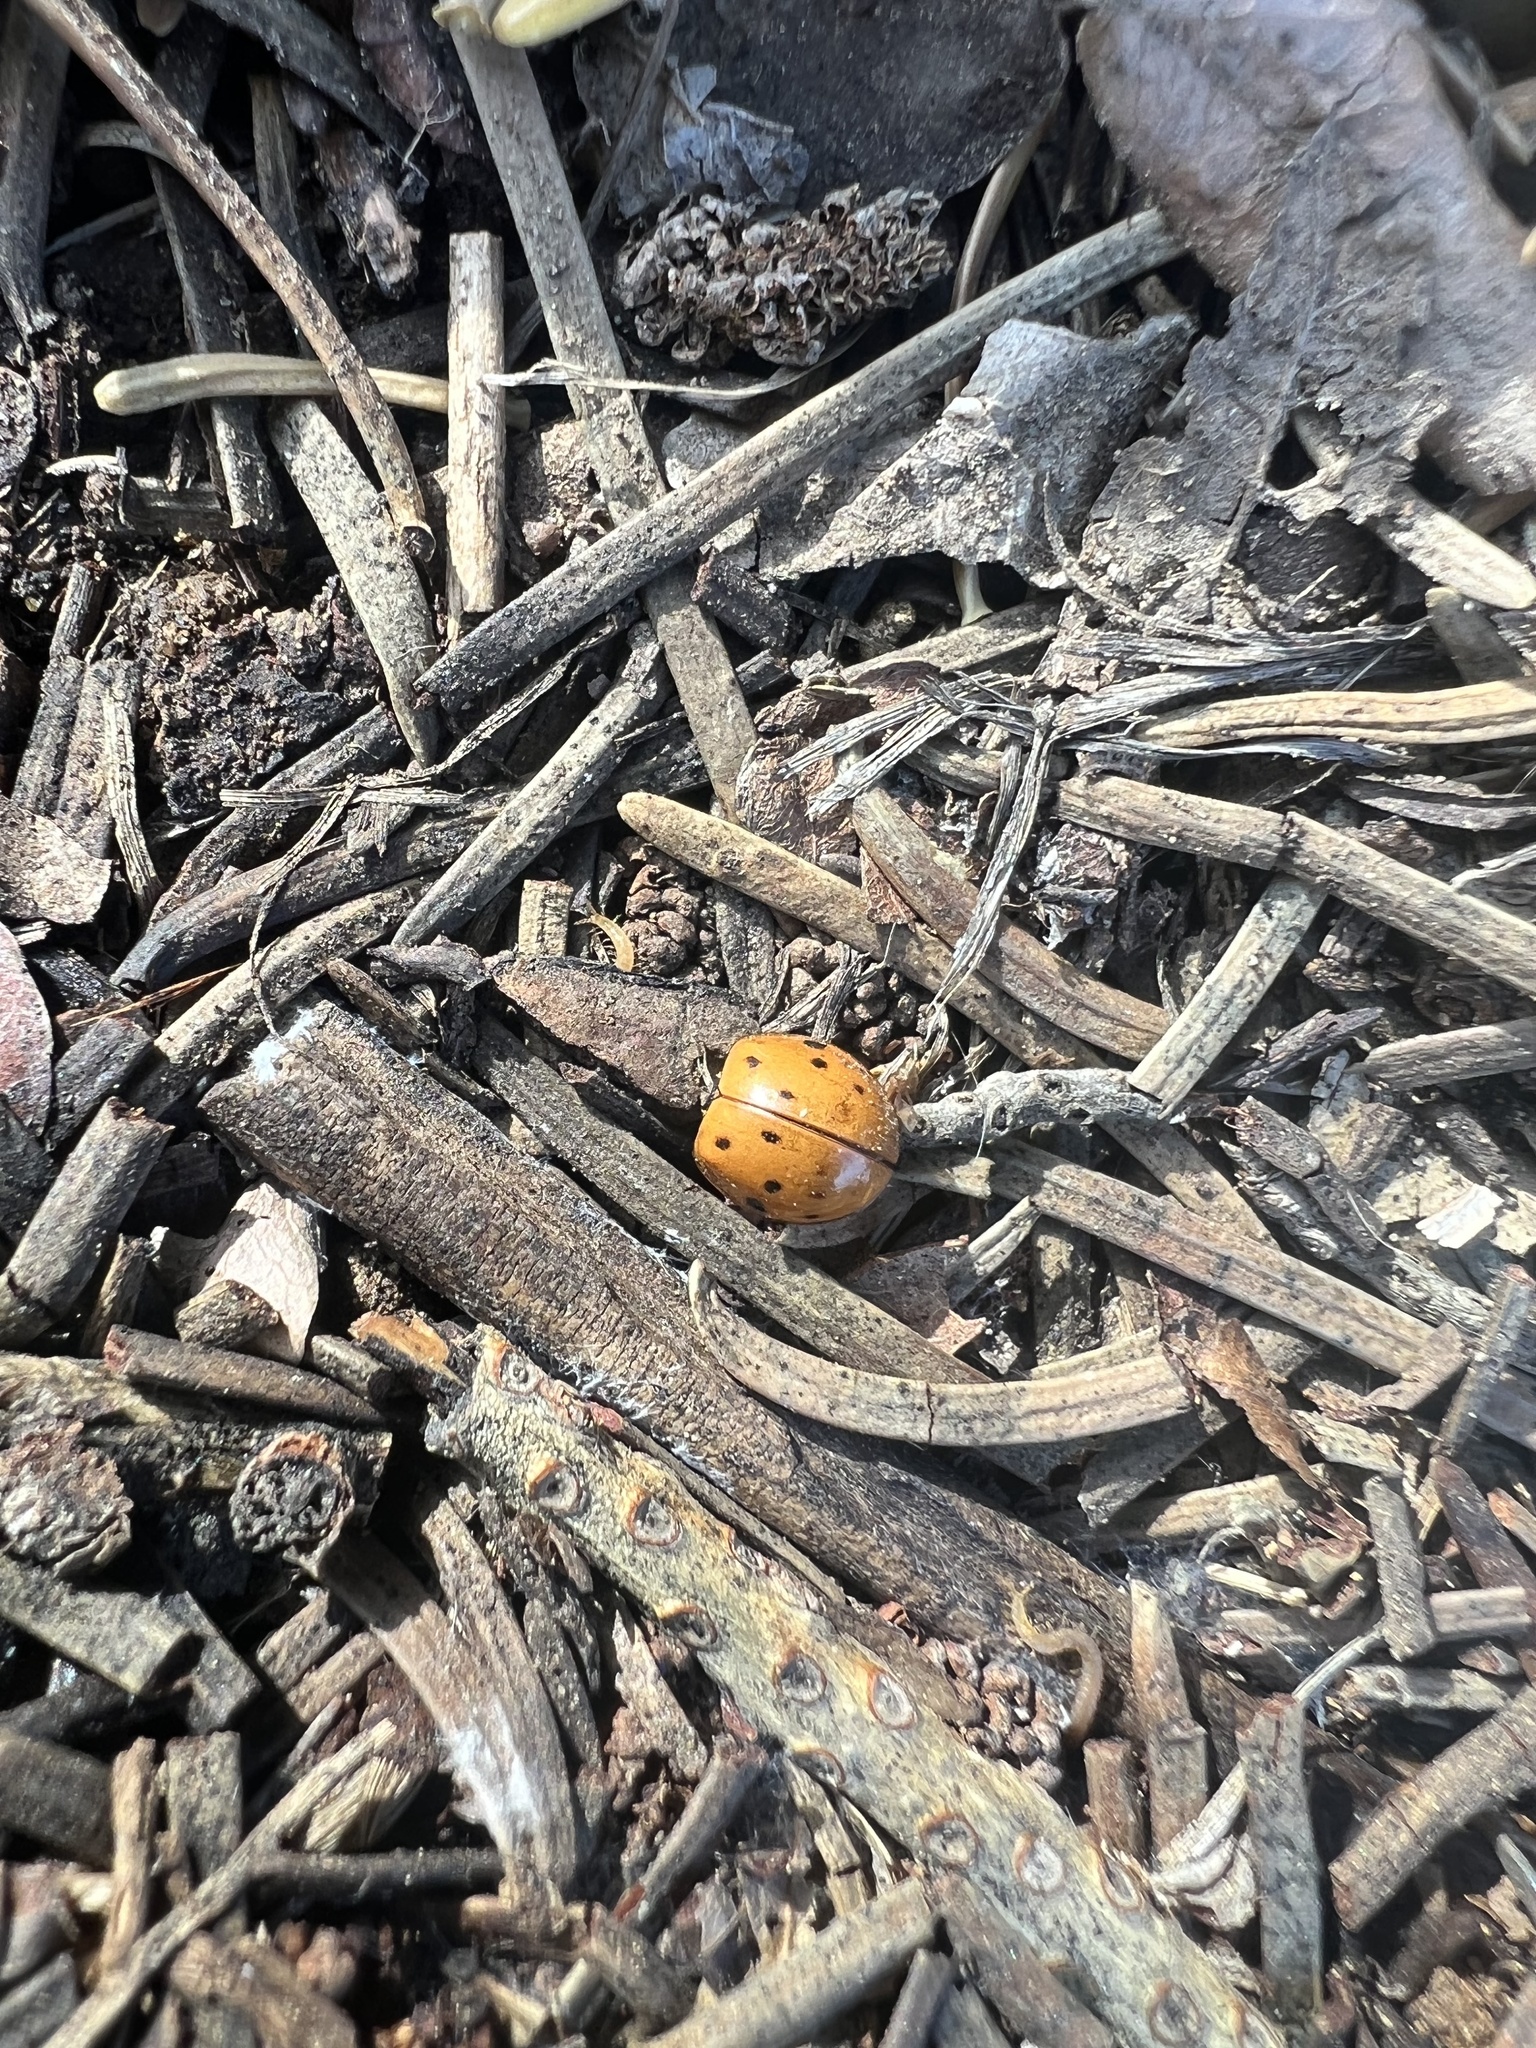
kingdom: Animalia
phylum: Arthropoda
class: Insecta
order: Coleoptera
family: Coccinellidae
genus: Harmonia
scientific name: Harmonia axyridis
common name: Harlequin ladybird
